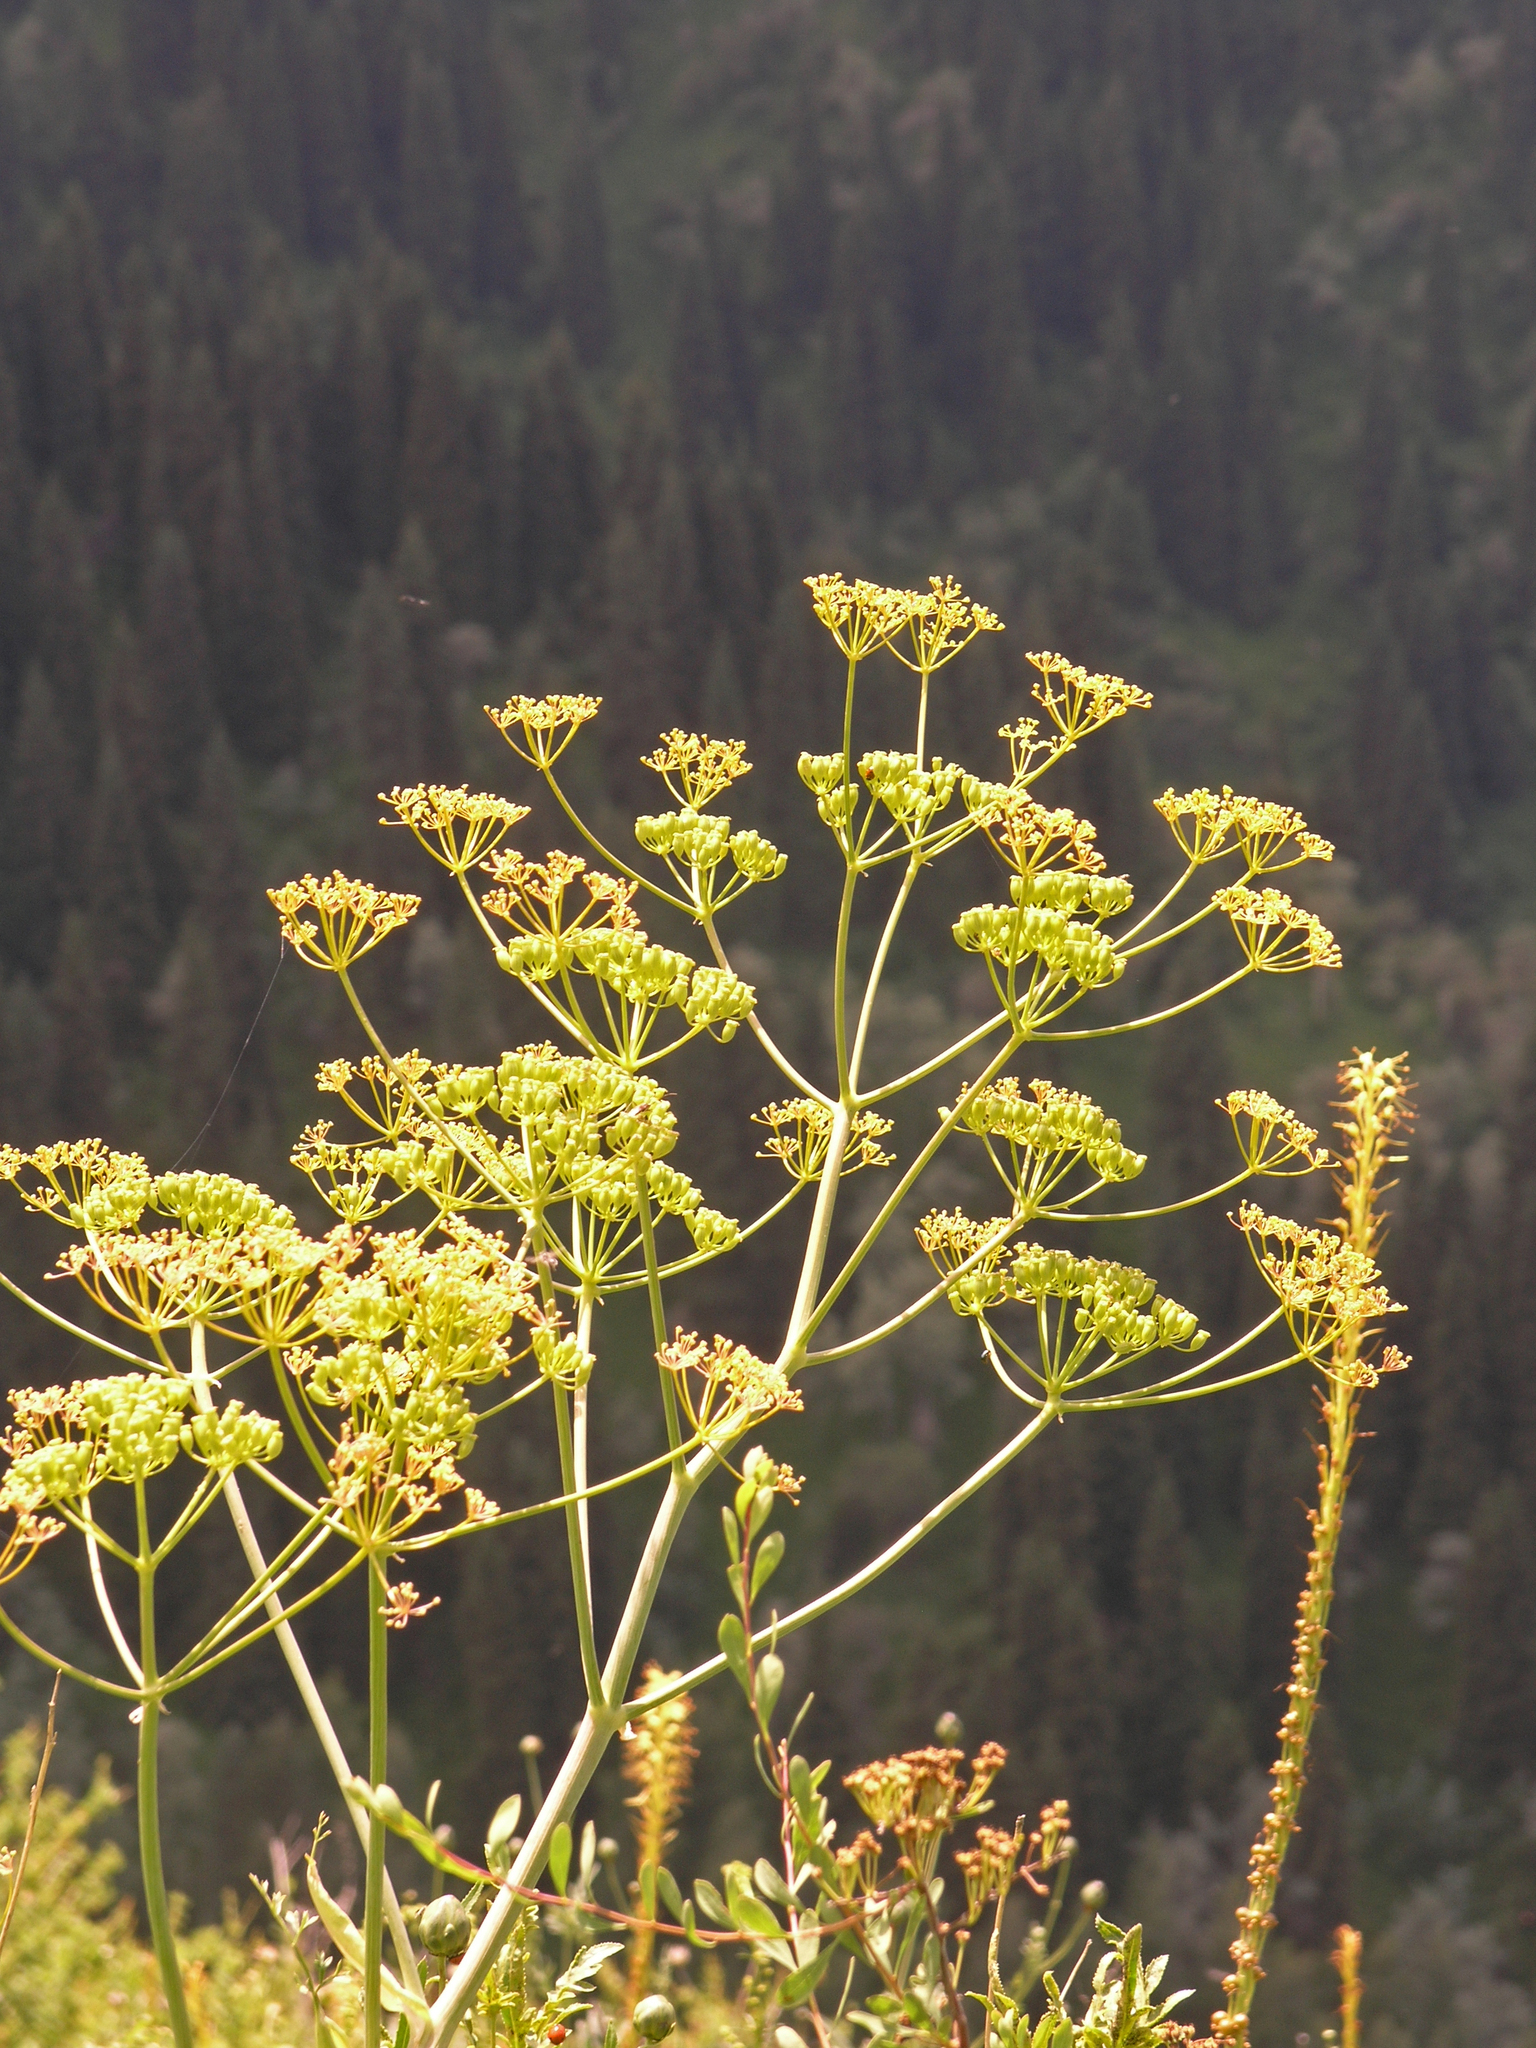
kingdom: Plantae
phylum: Tracheophyta
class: Magnoliopsida
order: Apiales
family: Apiaceae
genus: Ferula
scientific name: Ferula kelleri
